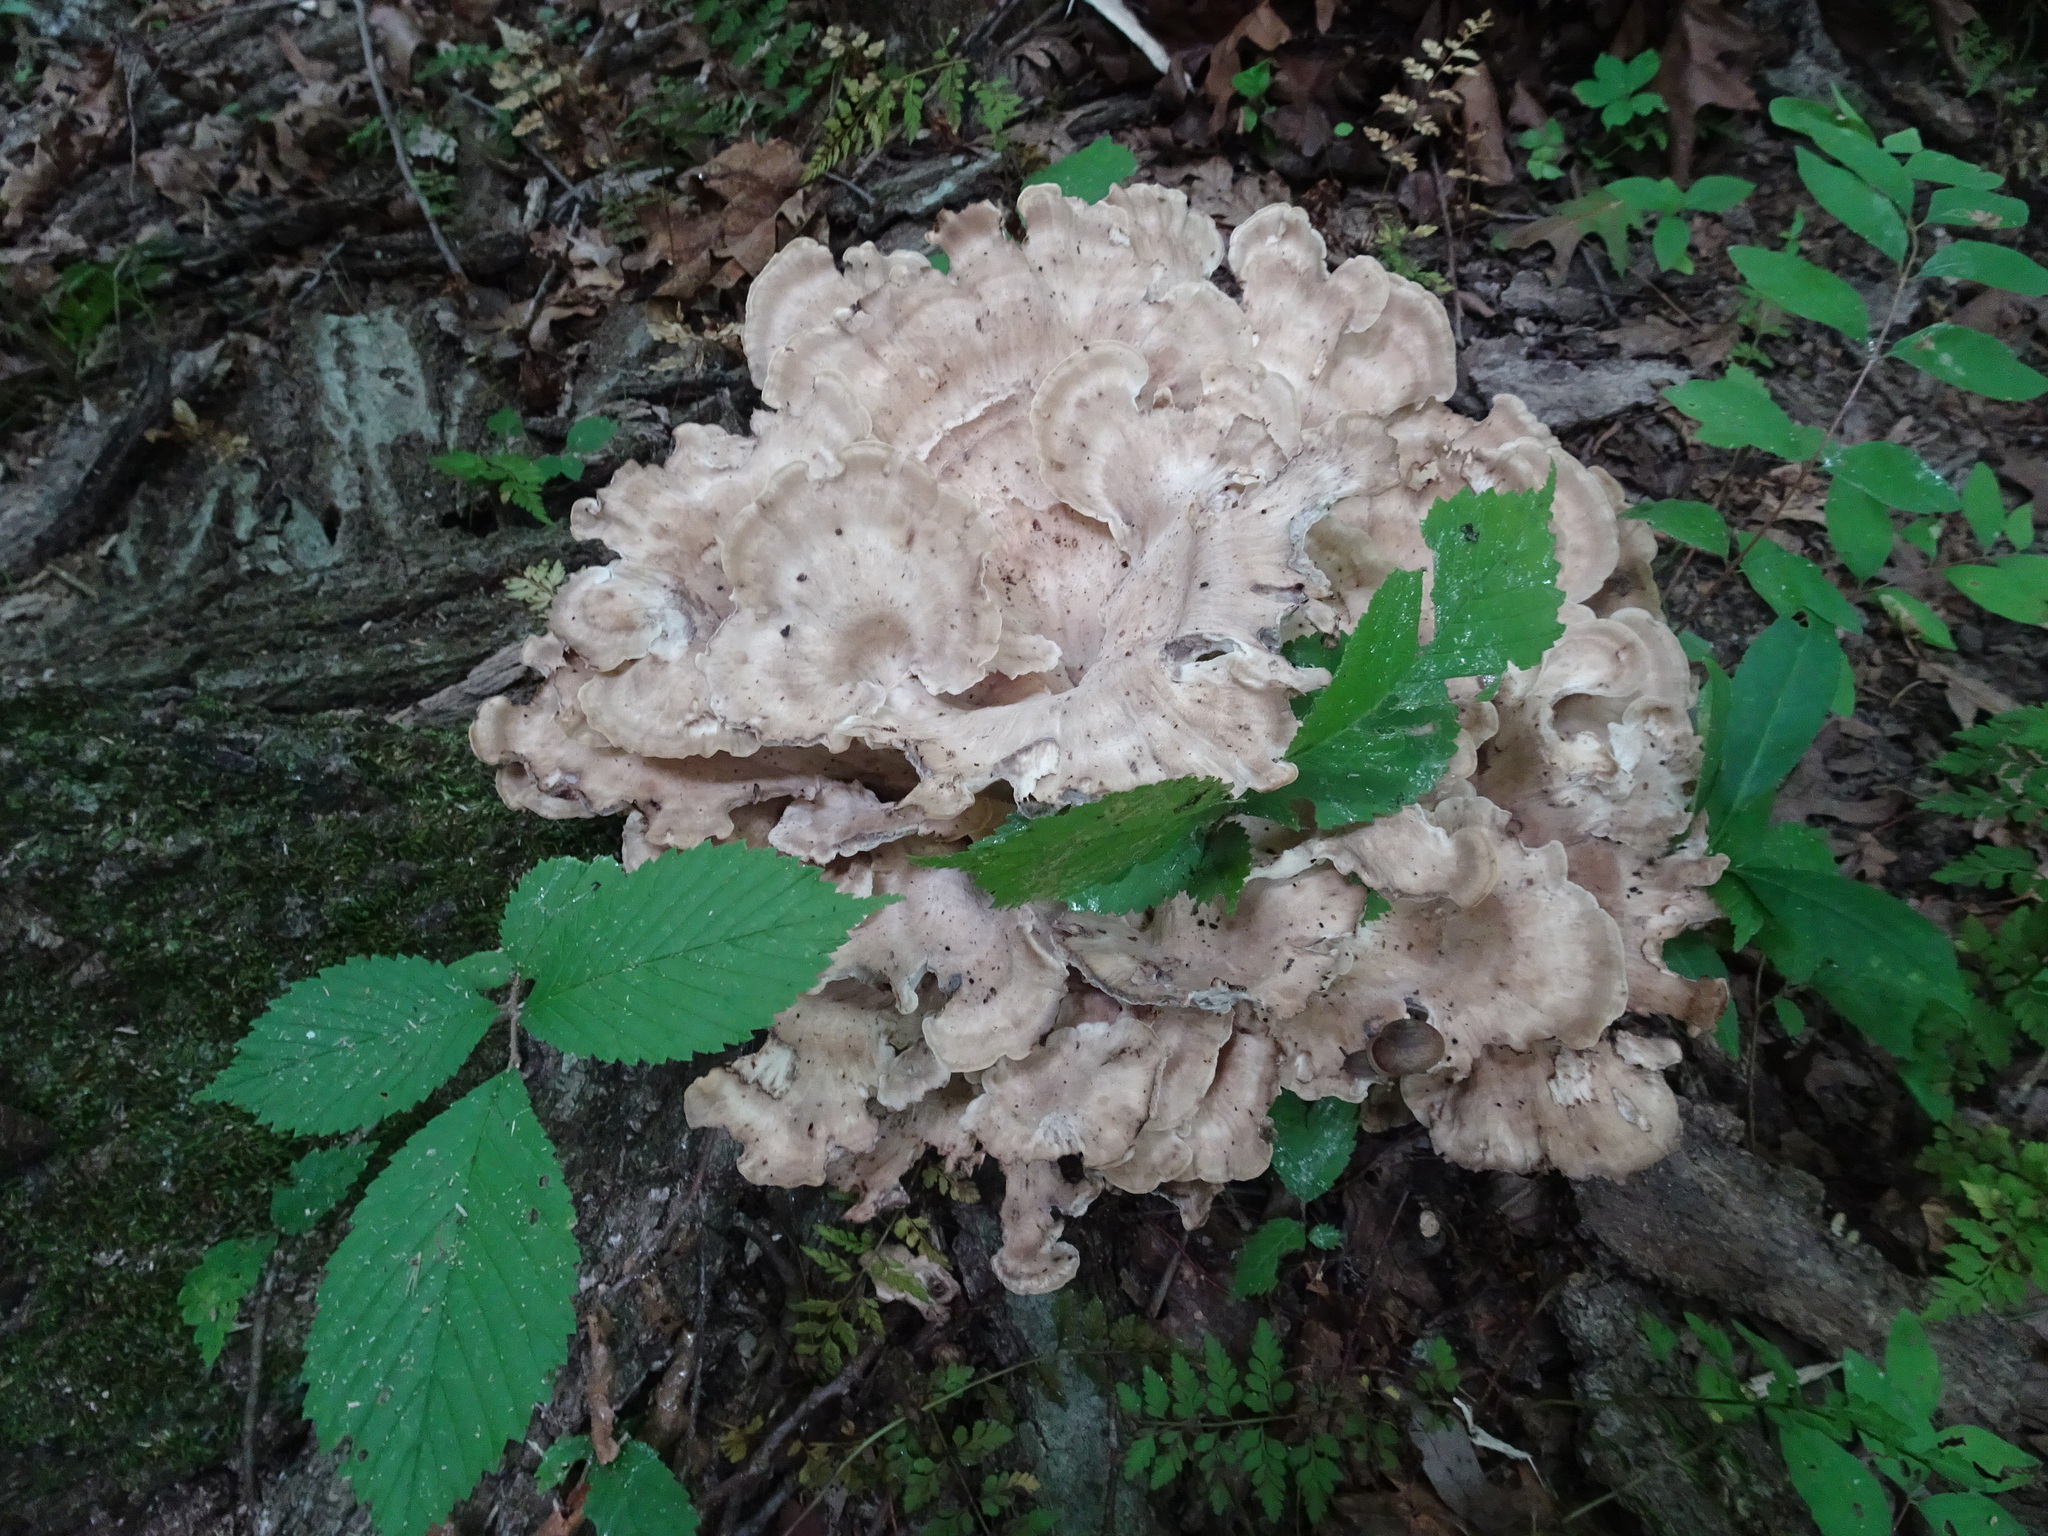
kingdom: Fungi
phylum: Basidiomycota
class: Agaricomycetes
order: Polyporales
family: Meripilaceae
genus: Meripilus
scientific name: Meripilus sumstinei
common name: Black-staining polypore
